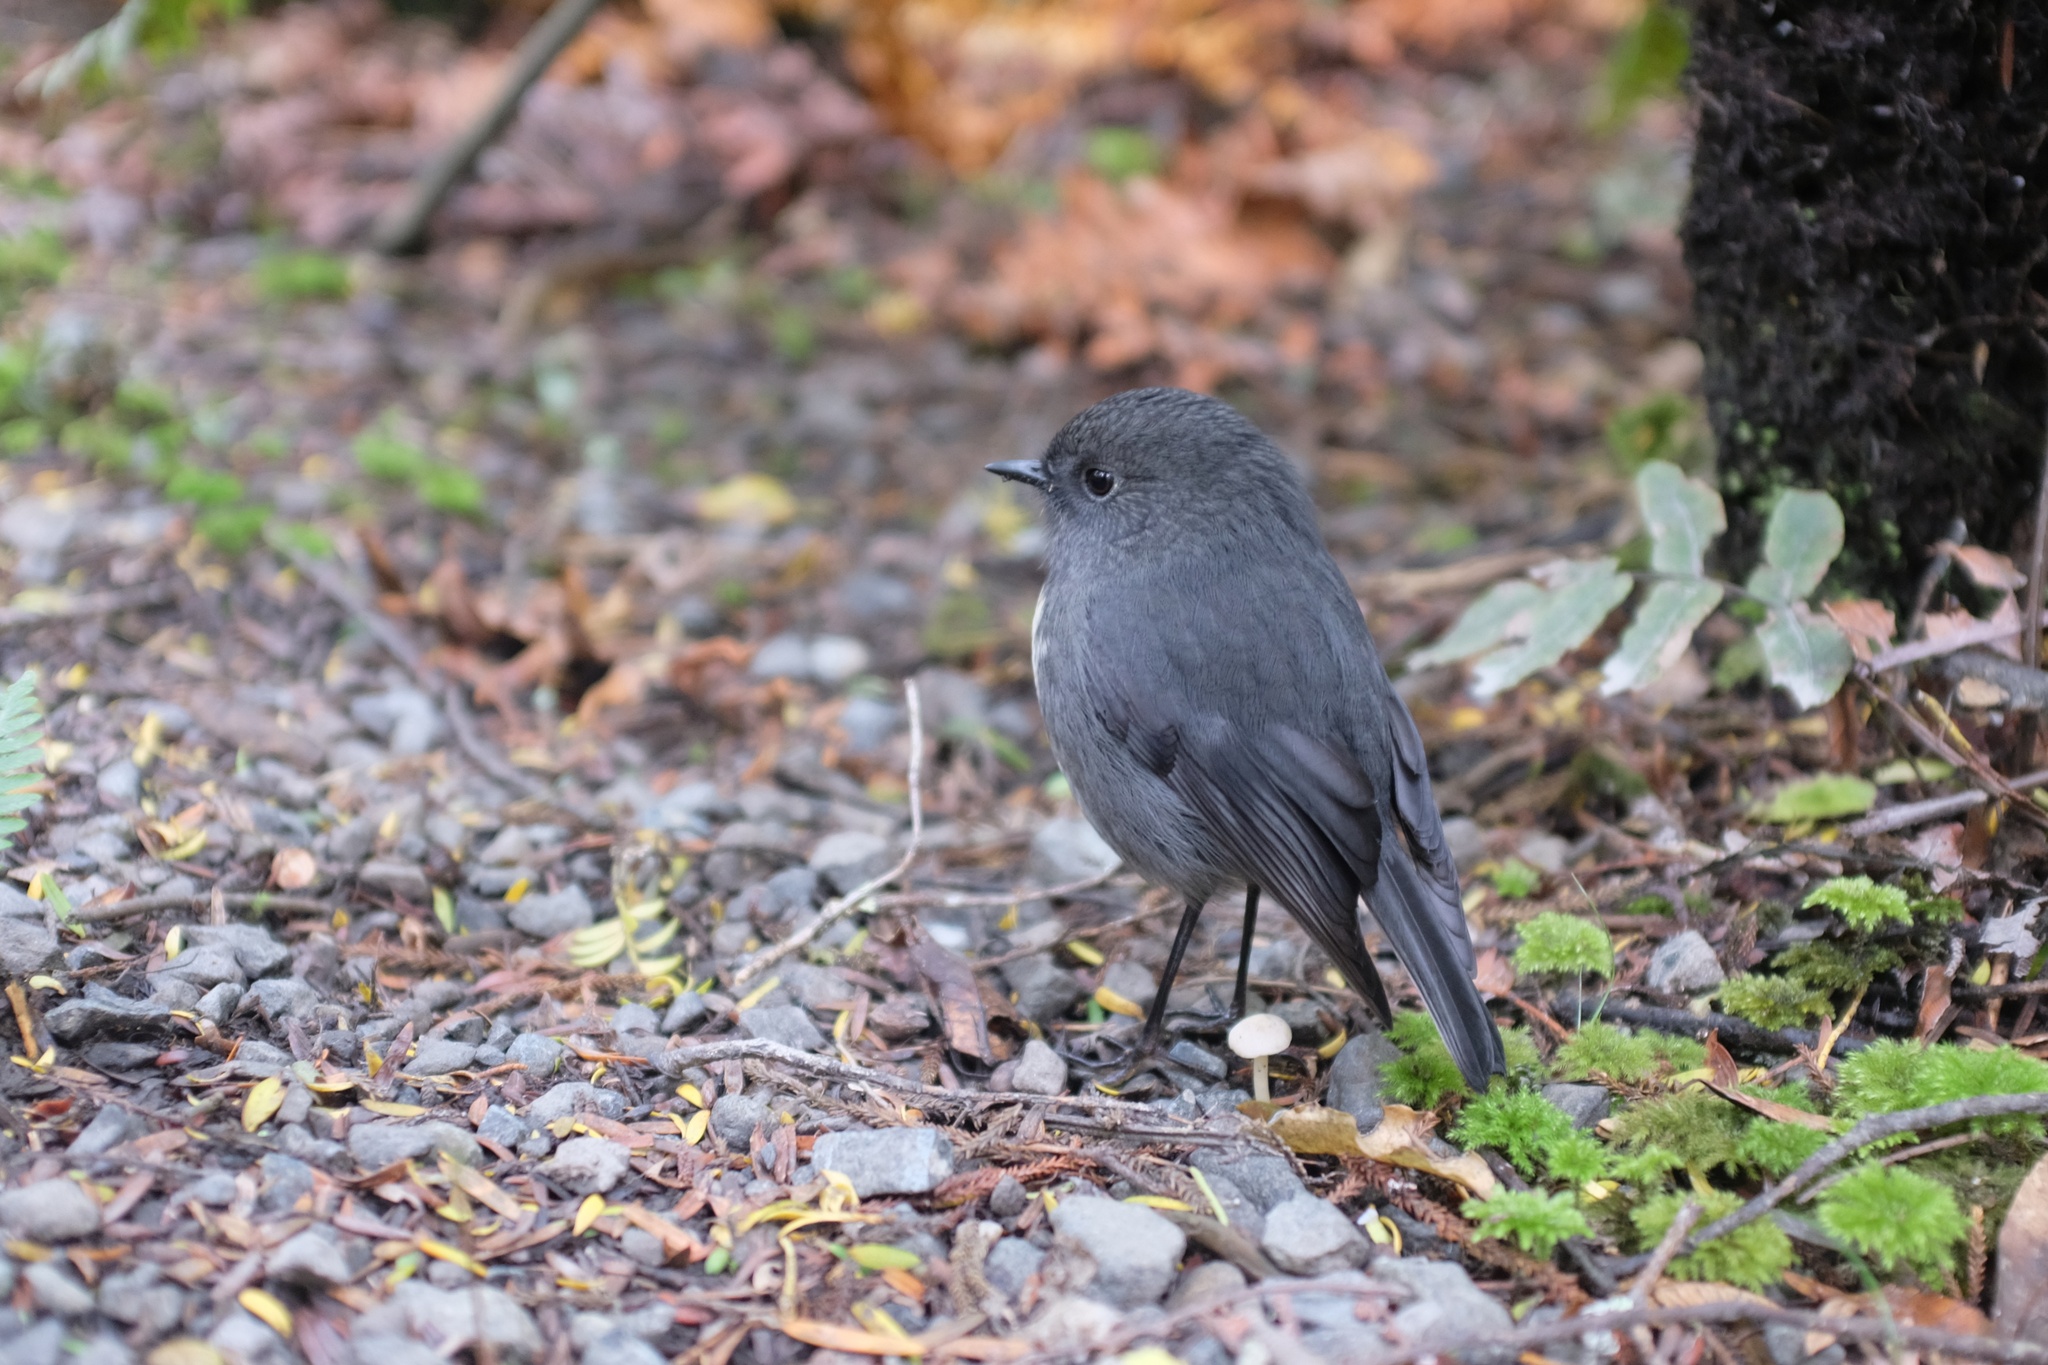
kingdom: Animalia
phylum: Chordata
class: Aves
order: Passeriformes
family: Petroicidae
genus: Petroica
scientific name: Petroica australis
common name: New zealand robin
